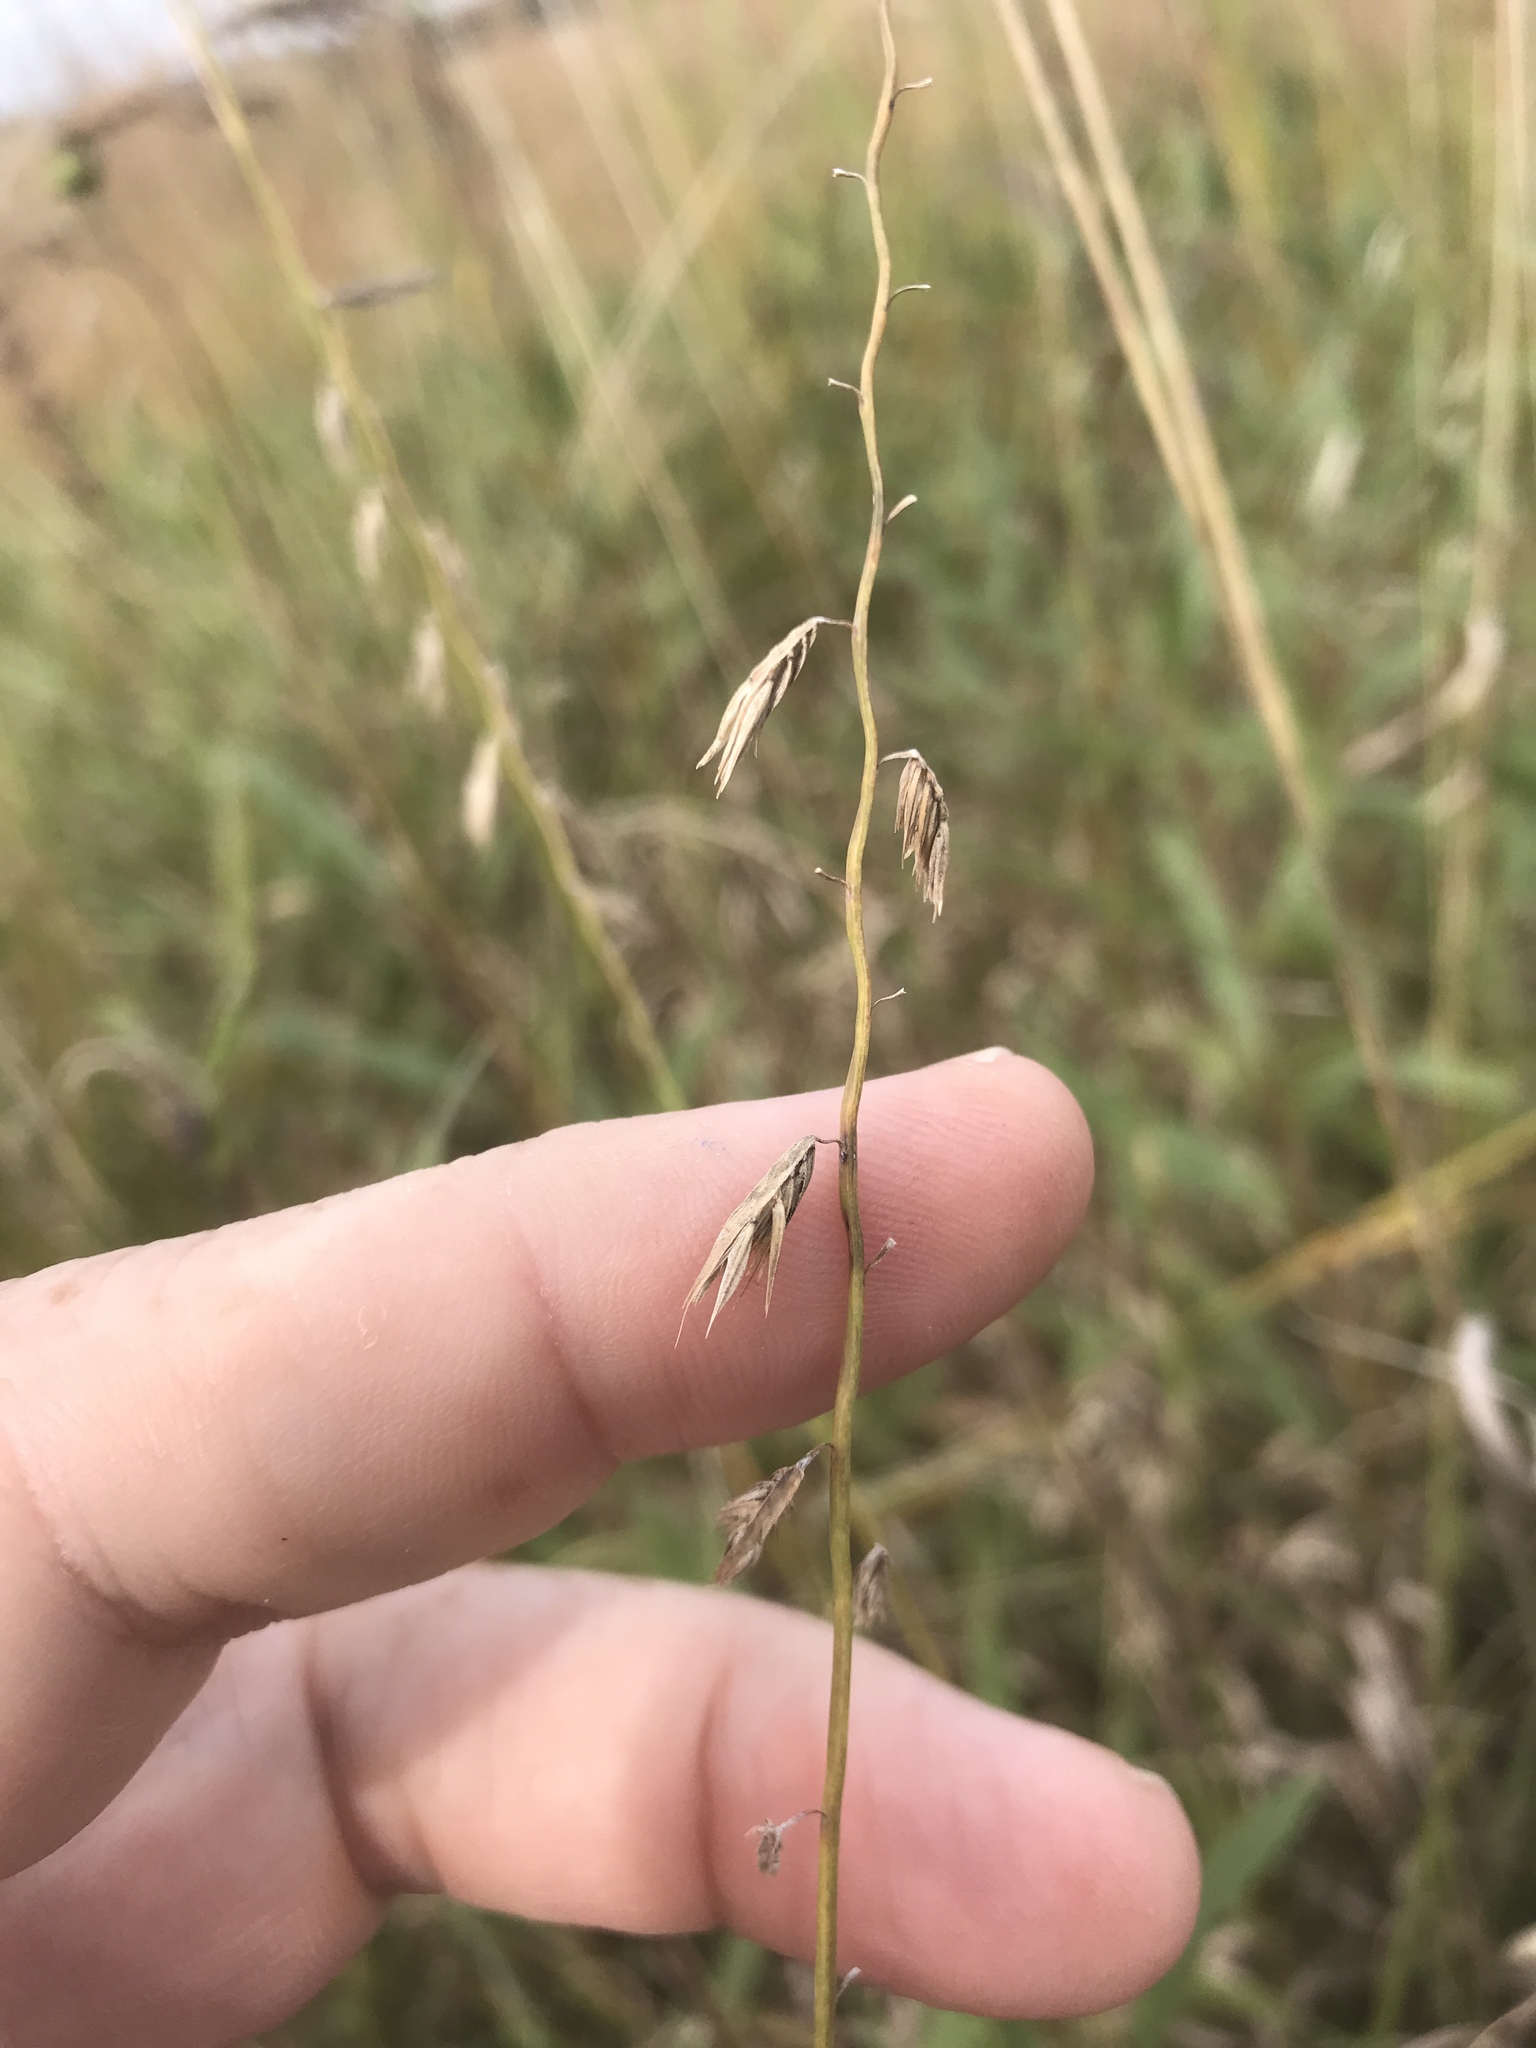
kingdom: Plantae
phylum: Tracheophyta
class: Liliopsida
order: Poales
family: Poaceae
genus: Bouteloua
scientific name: Bouteloua curtipendula
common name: Side-oats grama
